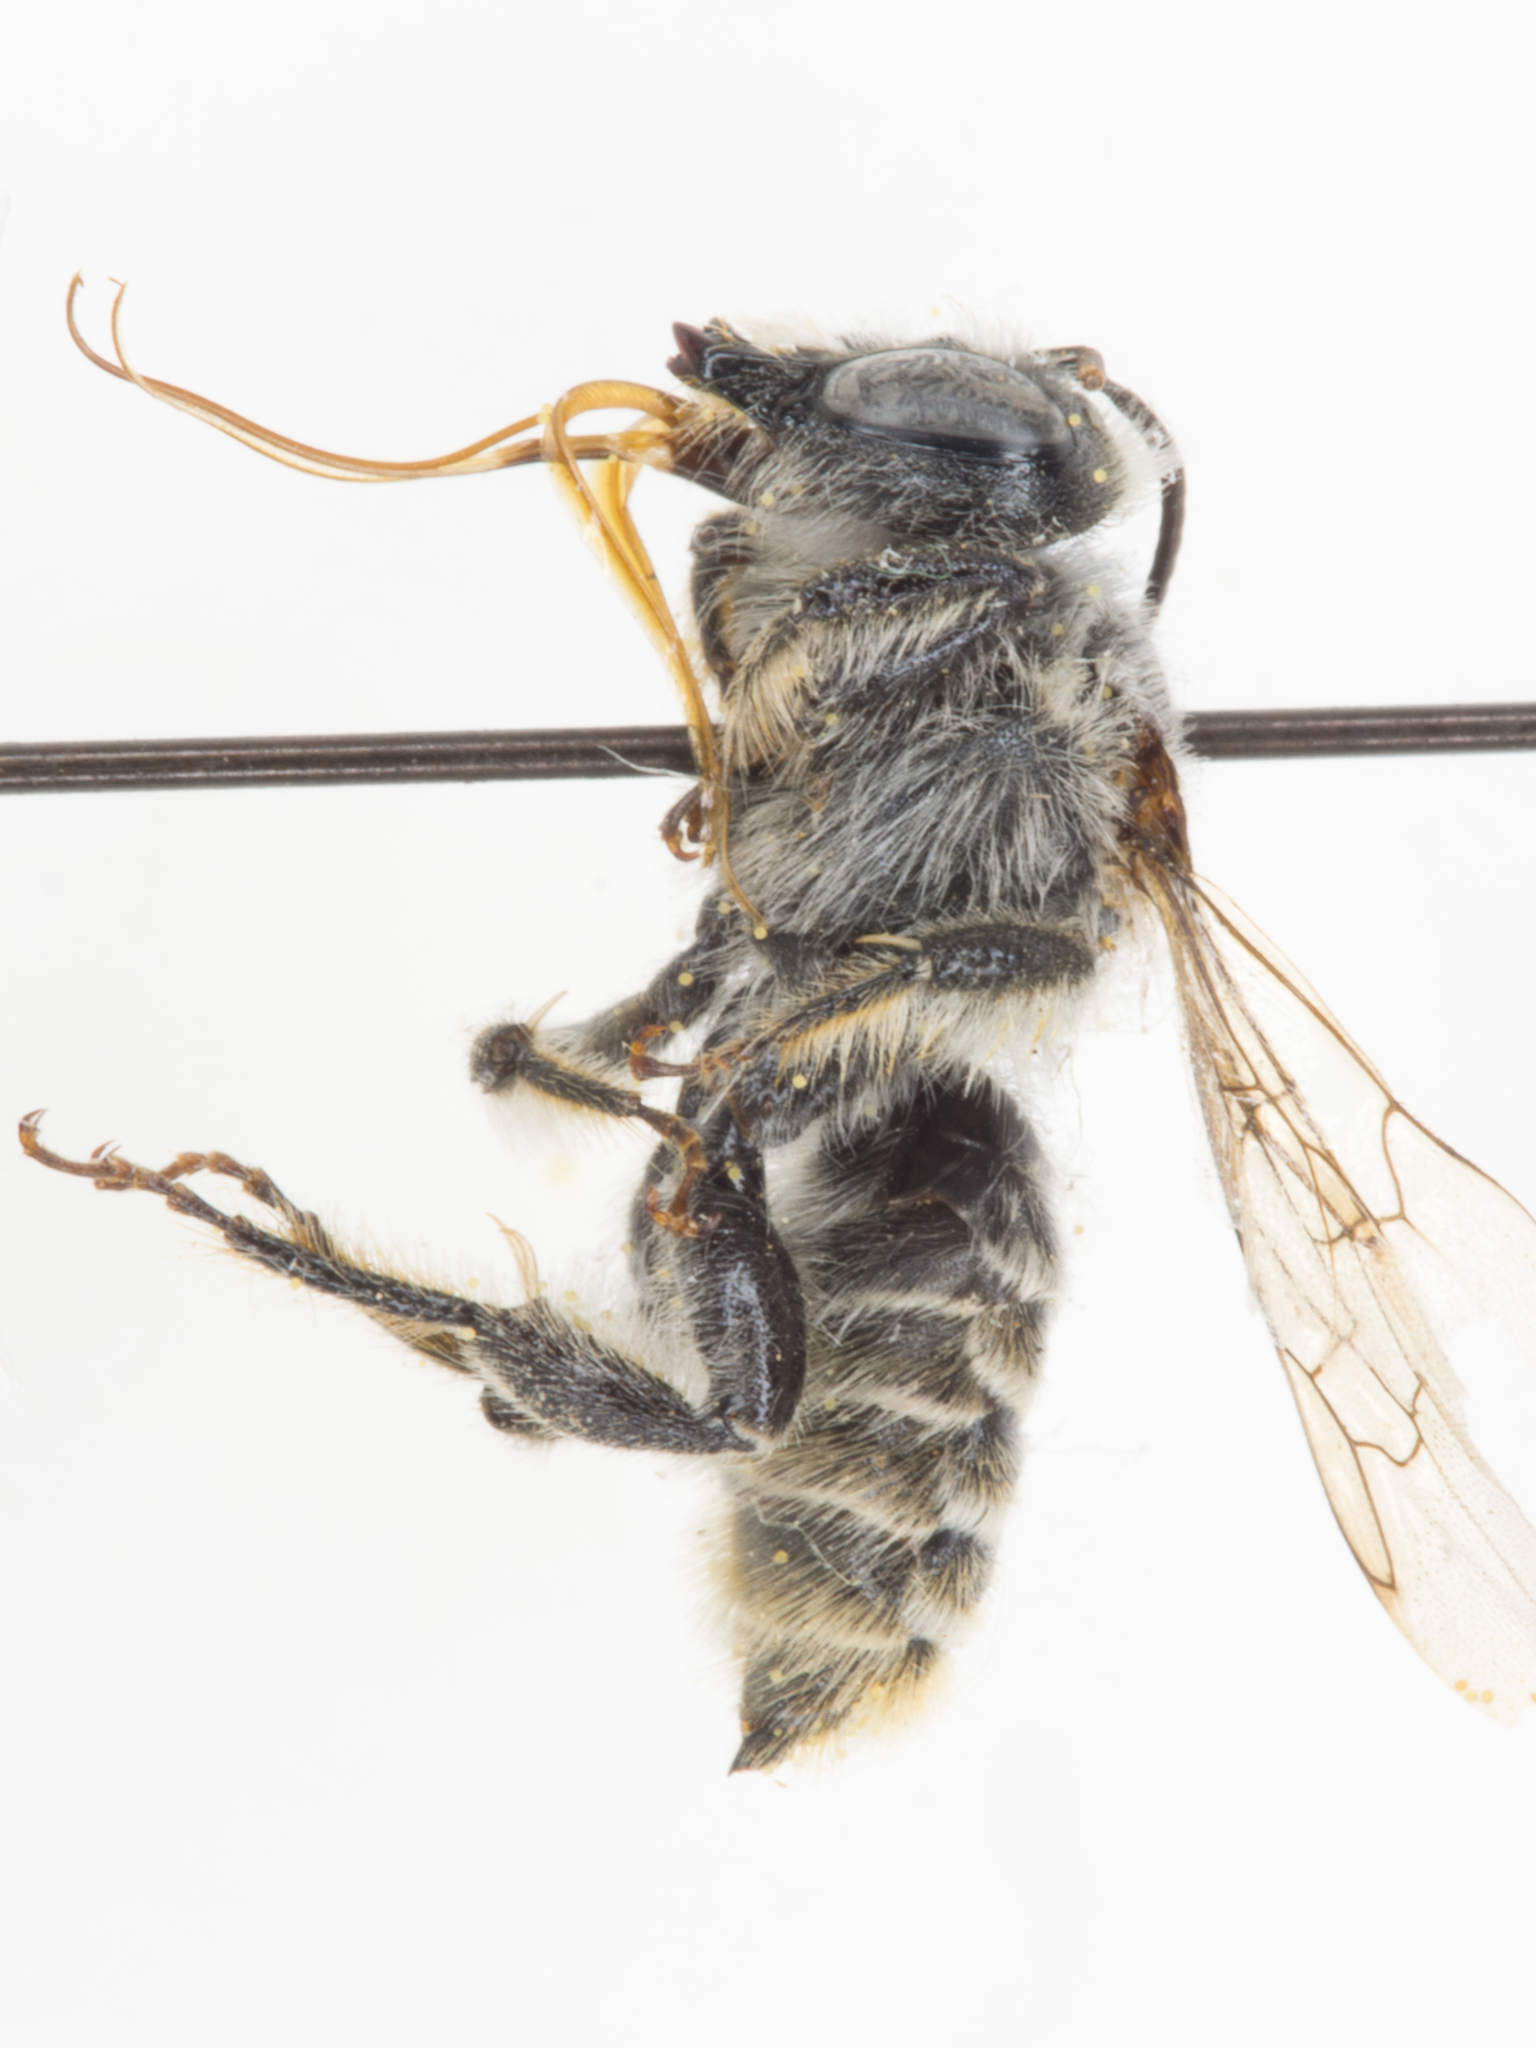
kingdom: Animalia
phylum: Arthropoda
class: Insecta
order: Hymenoptera
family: Megachilidae
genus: Lithurgopsis
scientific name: Lithurgopsis apicalis
